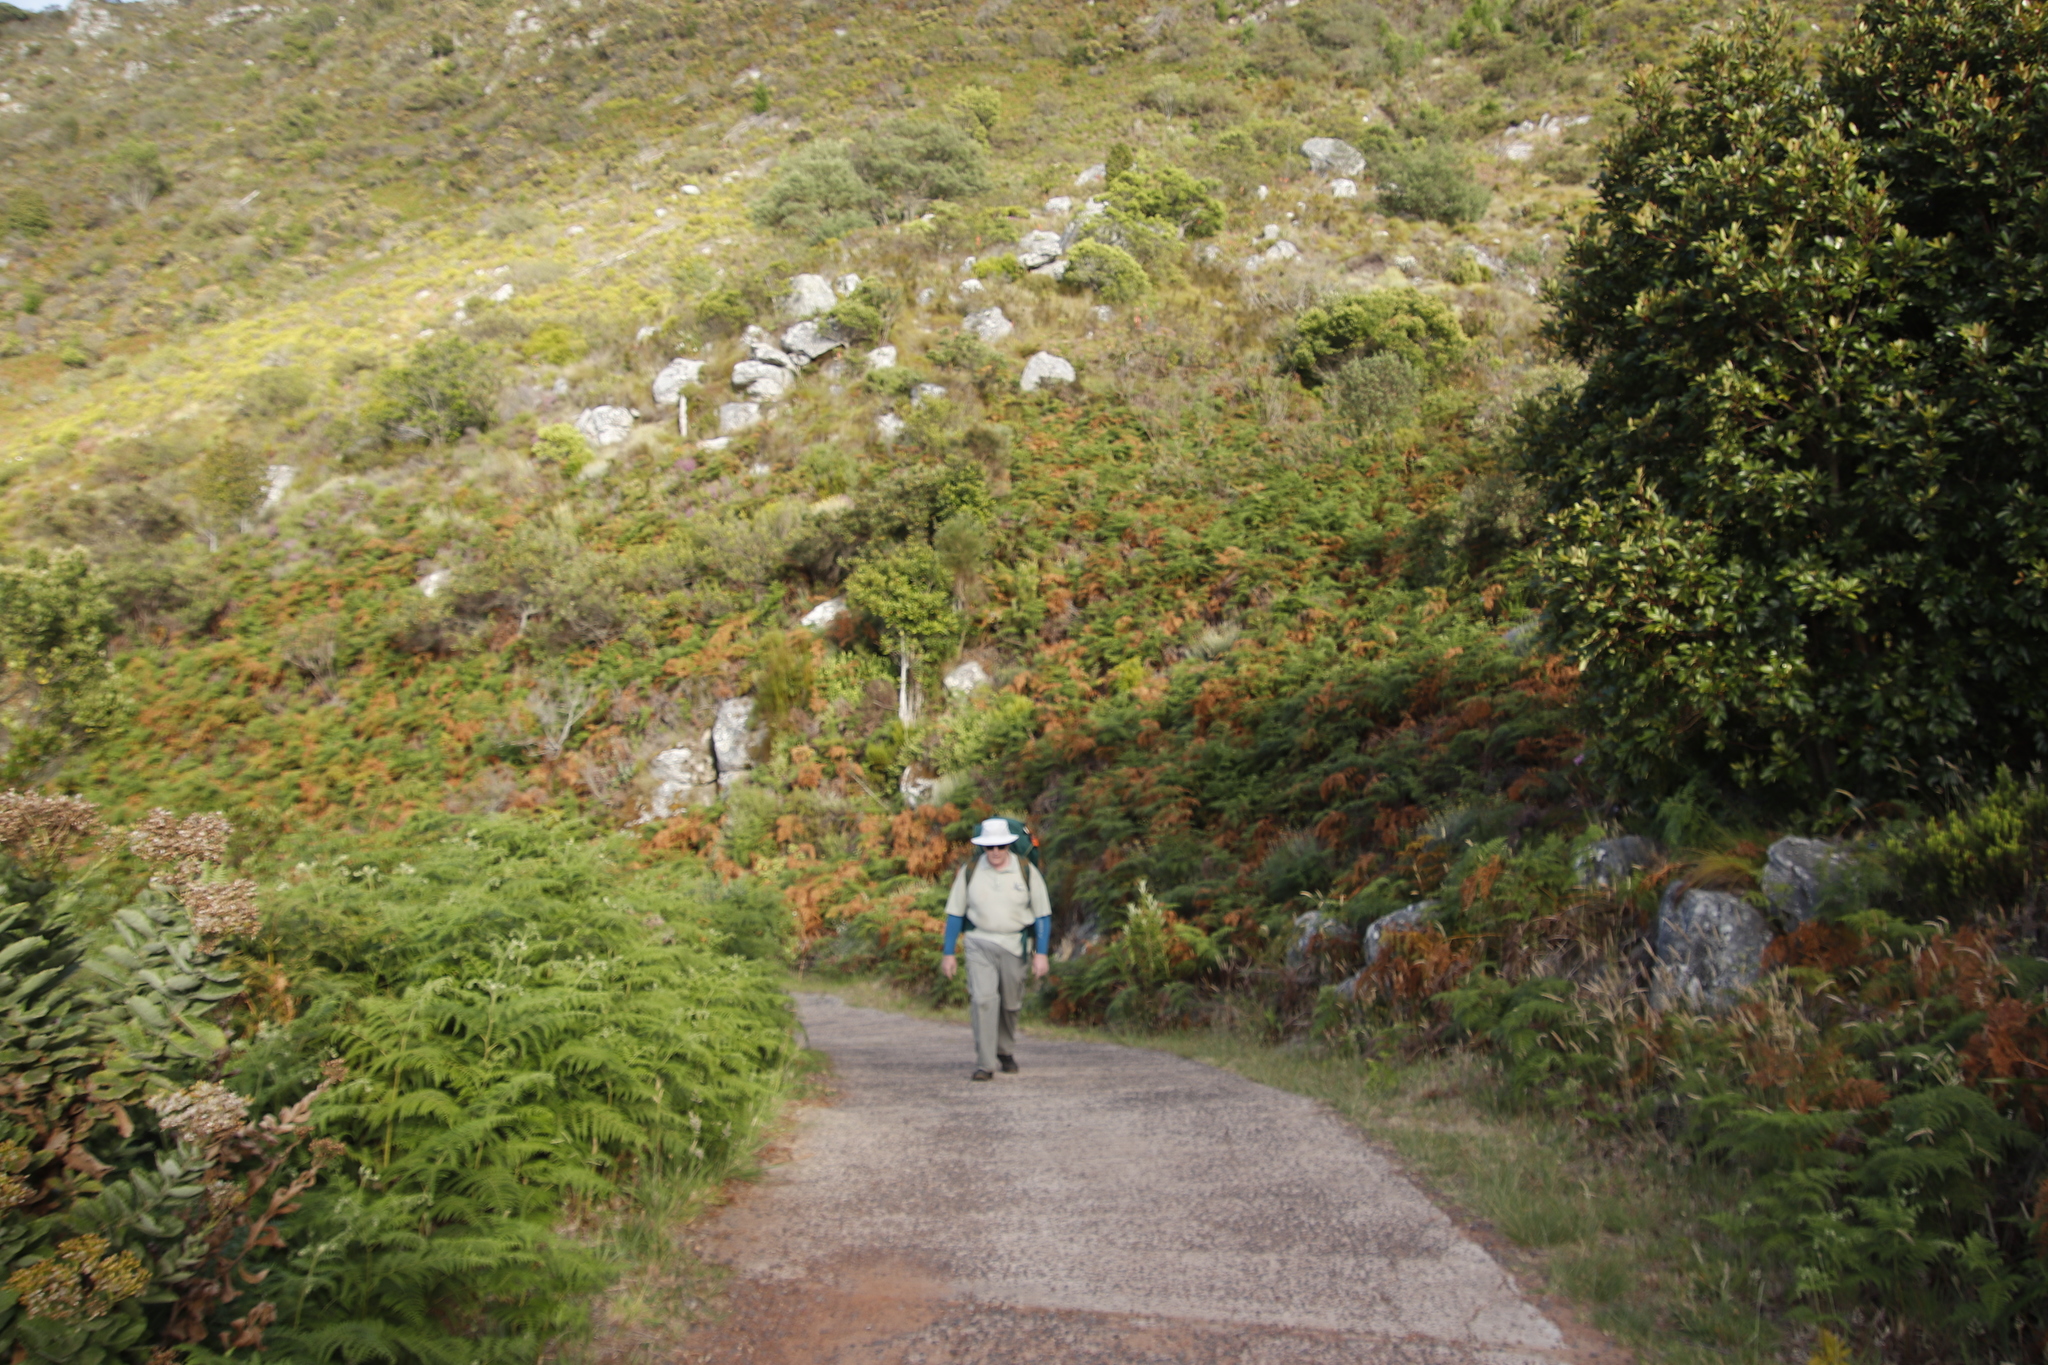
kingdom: Plantae
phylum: Tracheophyta
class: Polypodiopsida
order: Polypodiales
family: Dennstaedtiaceae
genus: Pteridium
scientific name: Pteridium aquilinum
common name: Bracken
